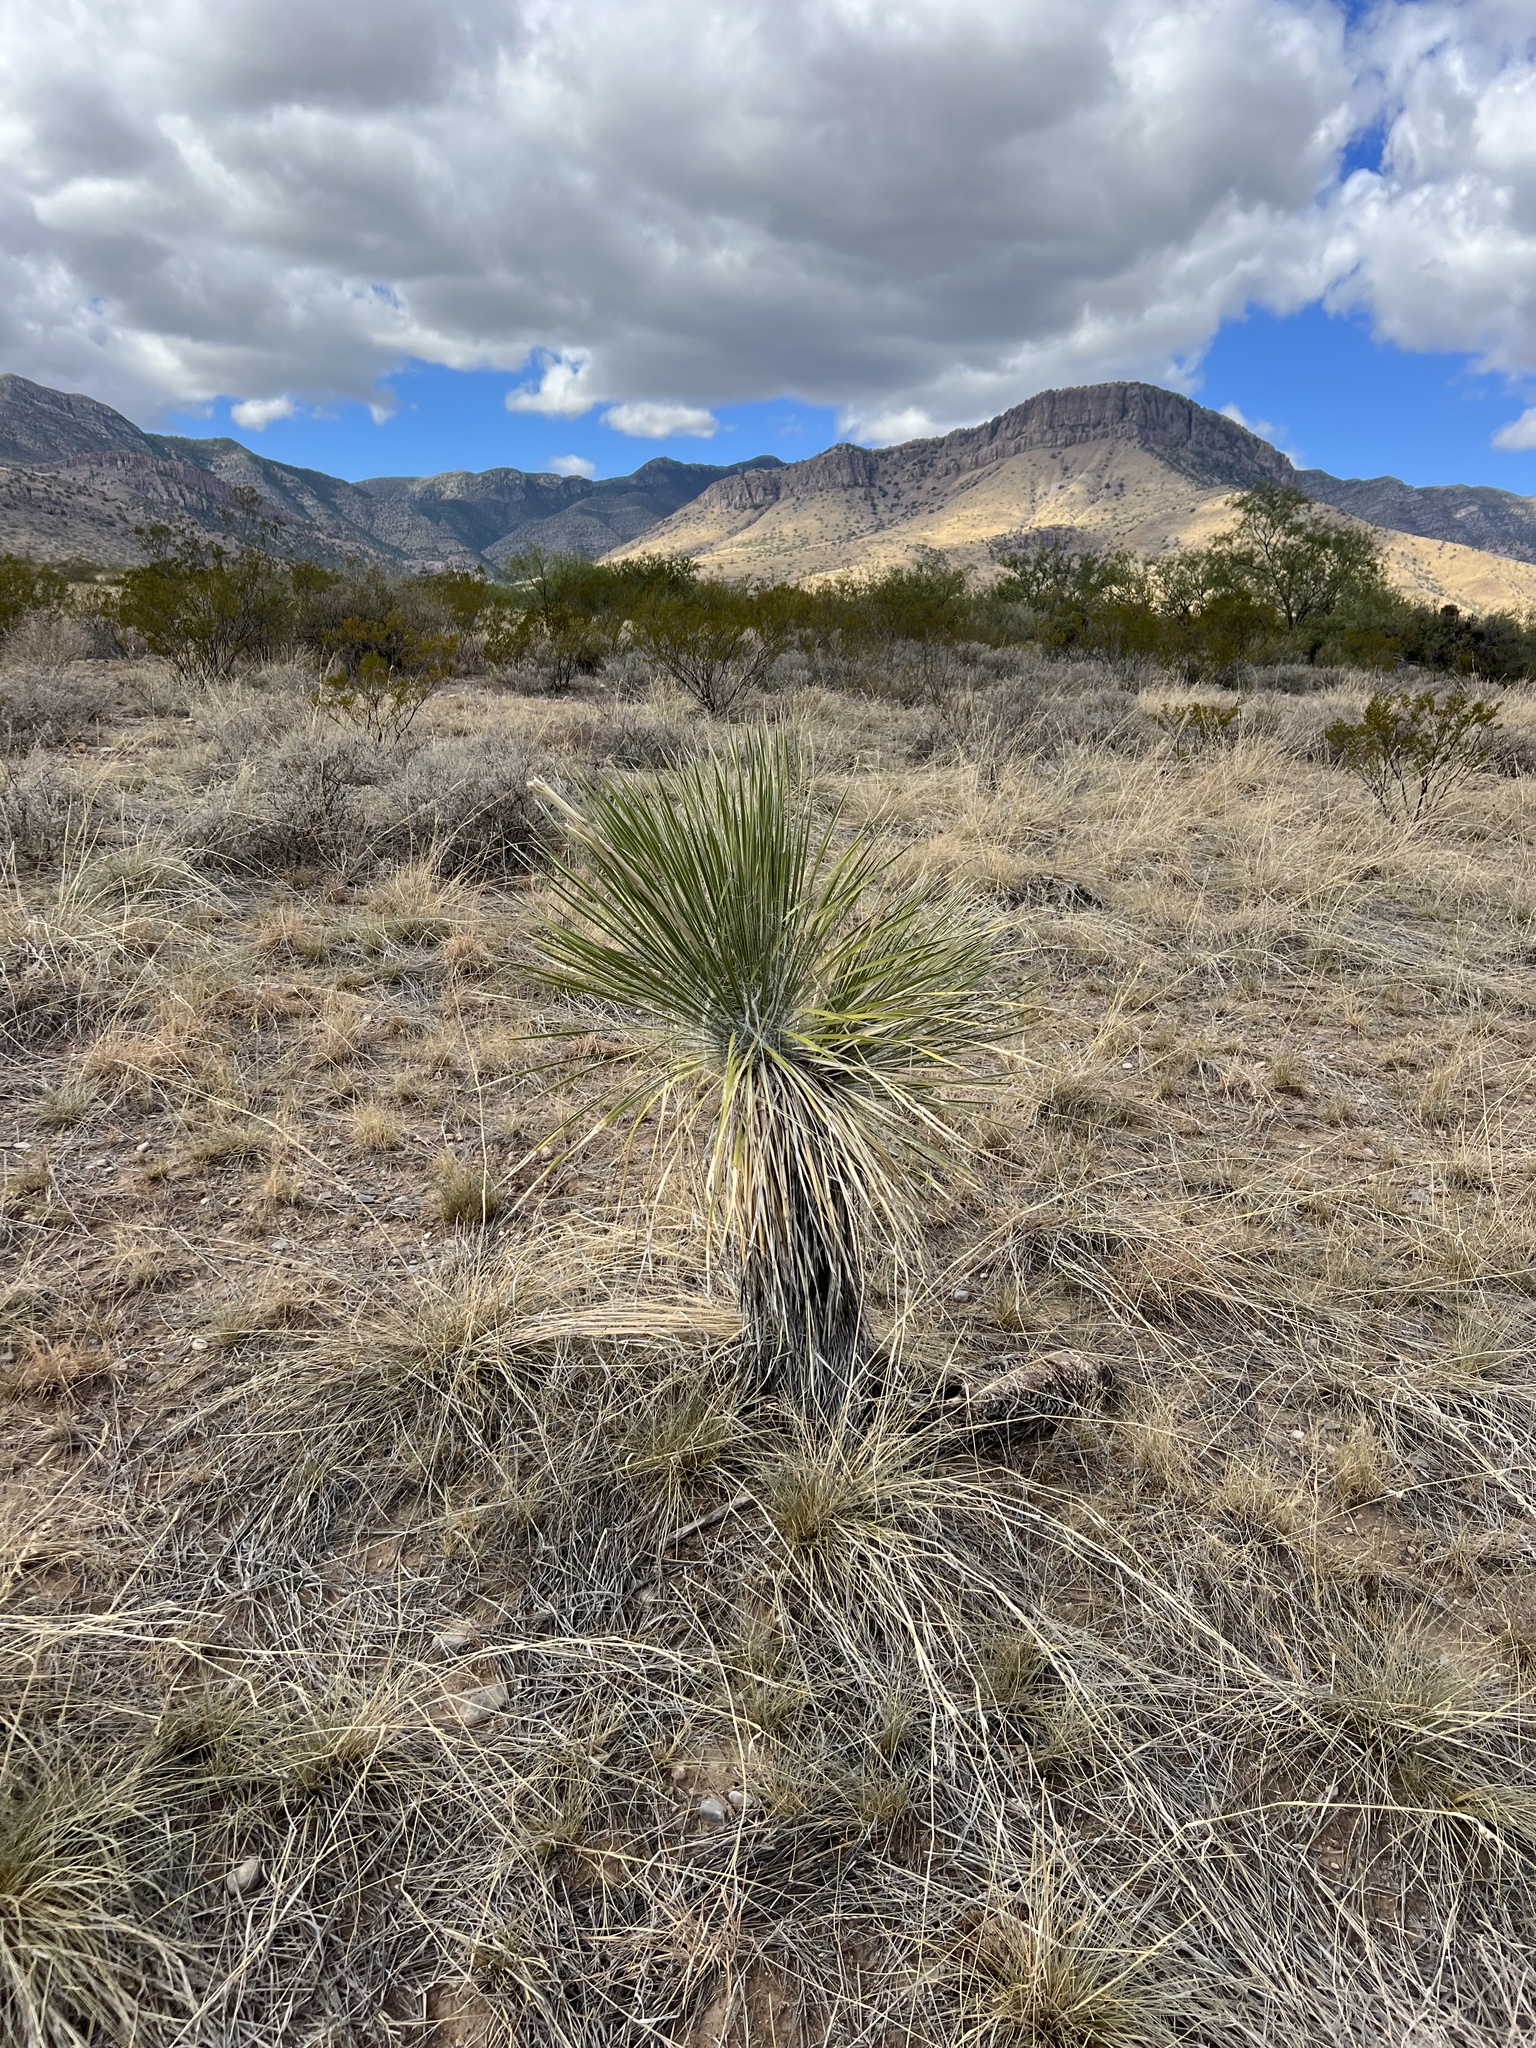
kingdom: Plantae
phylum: Tracheophyta
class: Liliopsida
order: Asparagales
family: Asparagaceae
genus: Yucca
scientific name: Yucca elata
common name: Palmella
